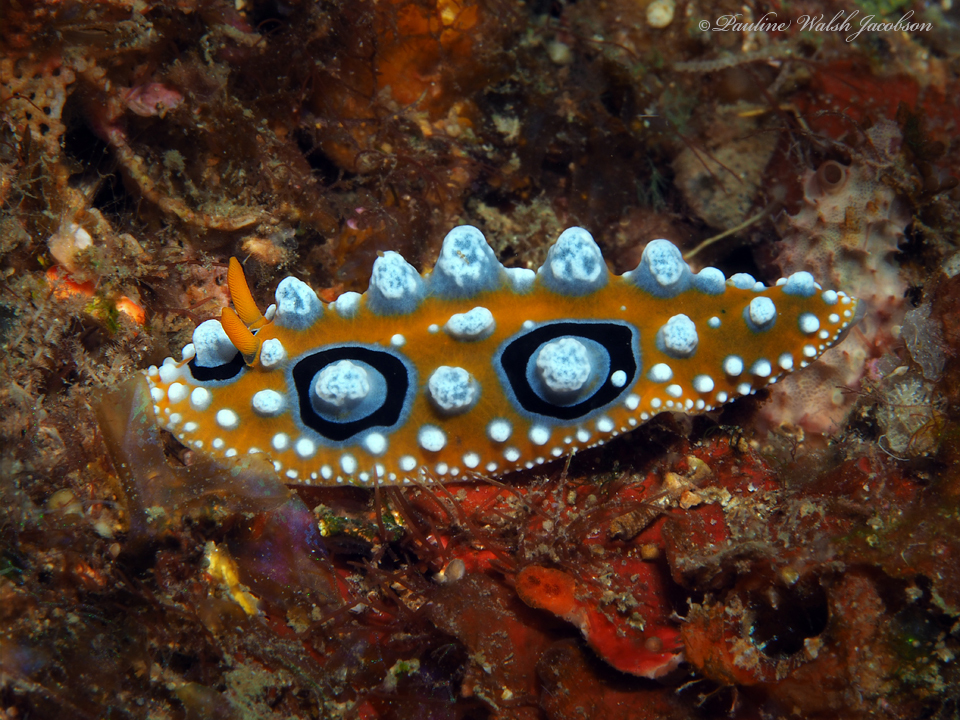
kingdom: Animalia
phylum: Mollusca
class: Gastropoda
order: Nudibranchia
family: Phyllidiidae
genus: Phyllidia
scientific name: Phyllidia ocellata
